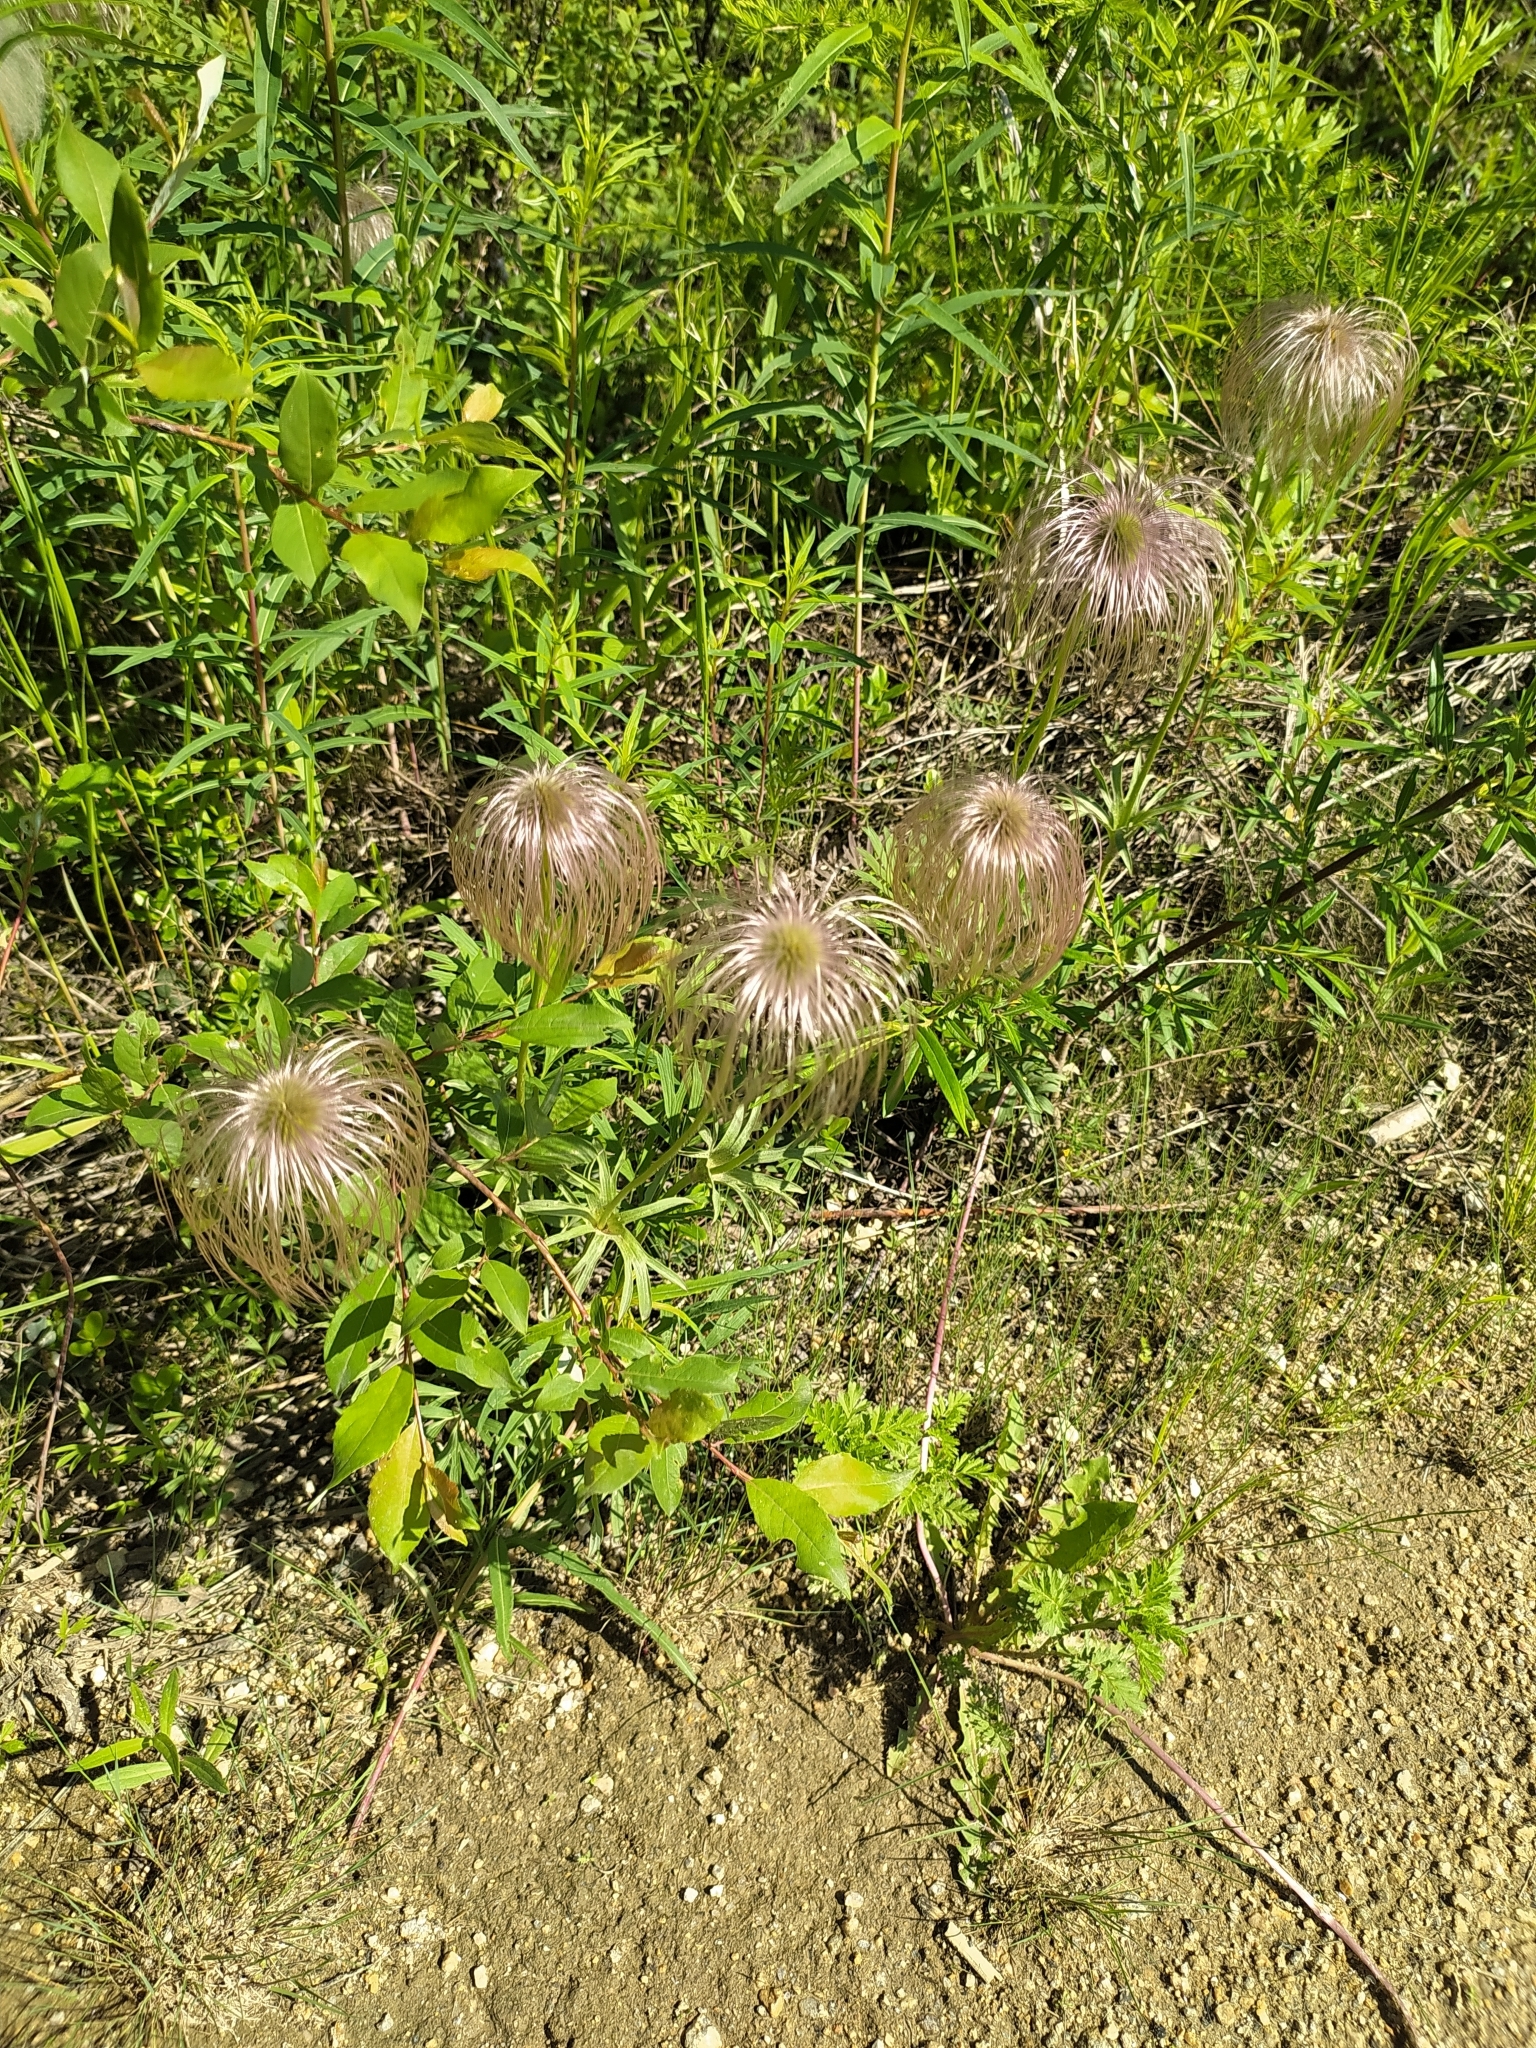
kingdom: Plantae
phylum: Tracheophyta
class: Magnoliopsida
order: Ranunculales
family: Ranunculaceae
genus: Pulsatilla
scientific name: Pulsatilla dahurica
